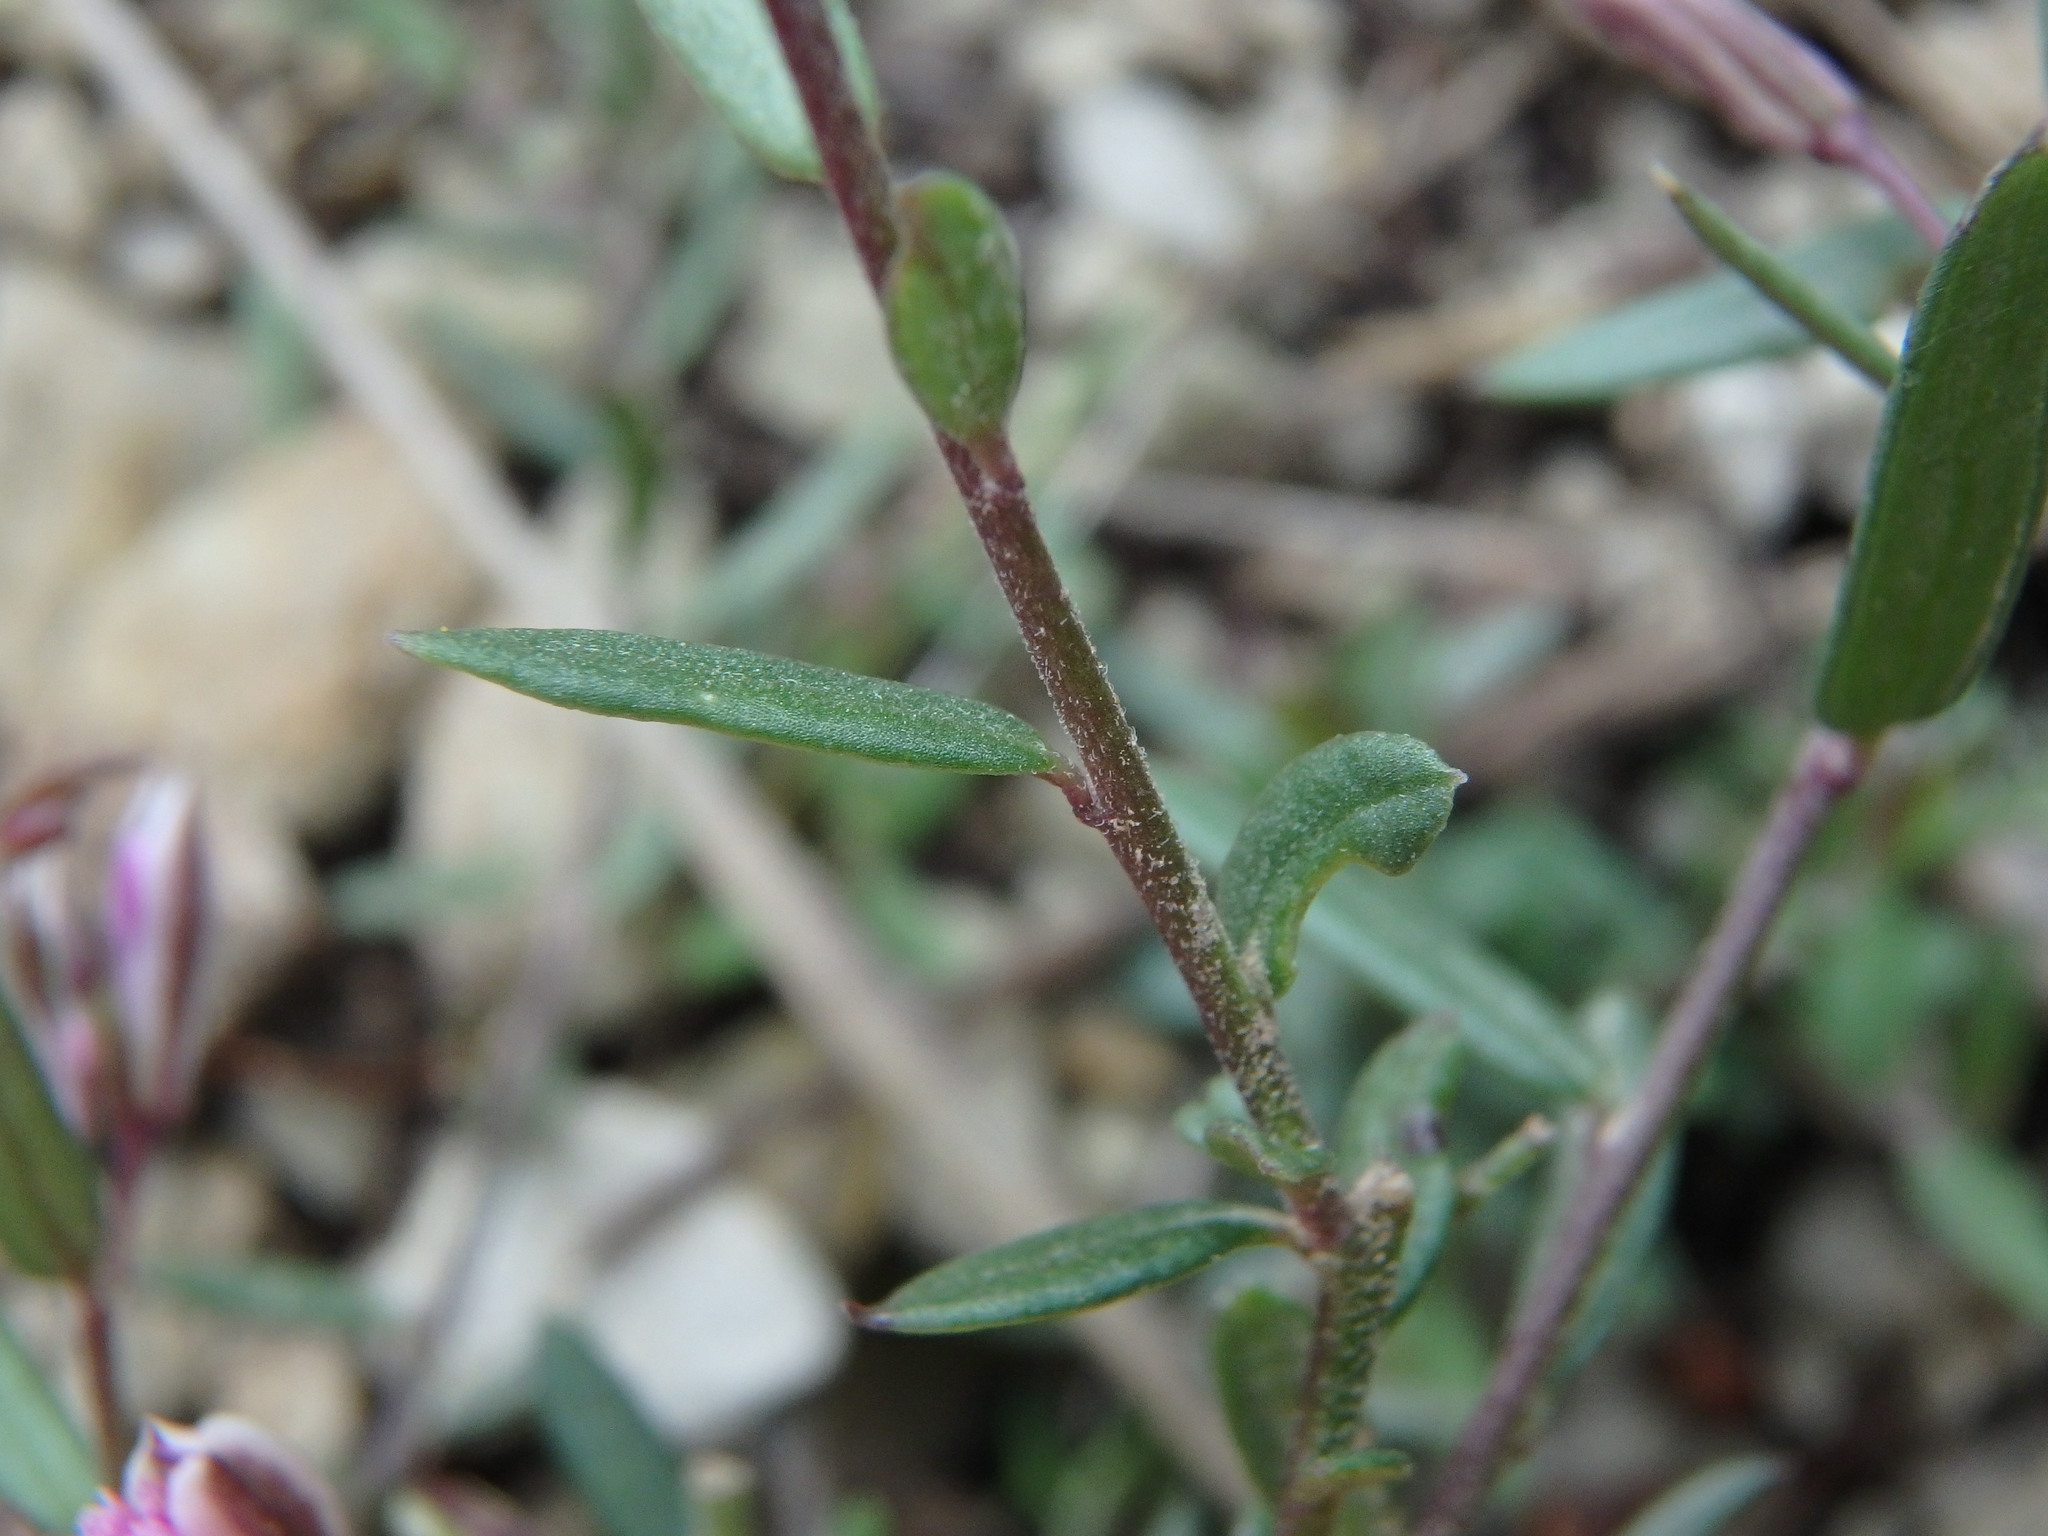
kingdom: Plantae
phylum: Tracheophyta
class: Magnoliopsida
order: Fabales
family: Polygalaceae
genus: Polygala
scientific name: Polygala rupestris
